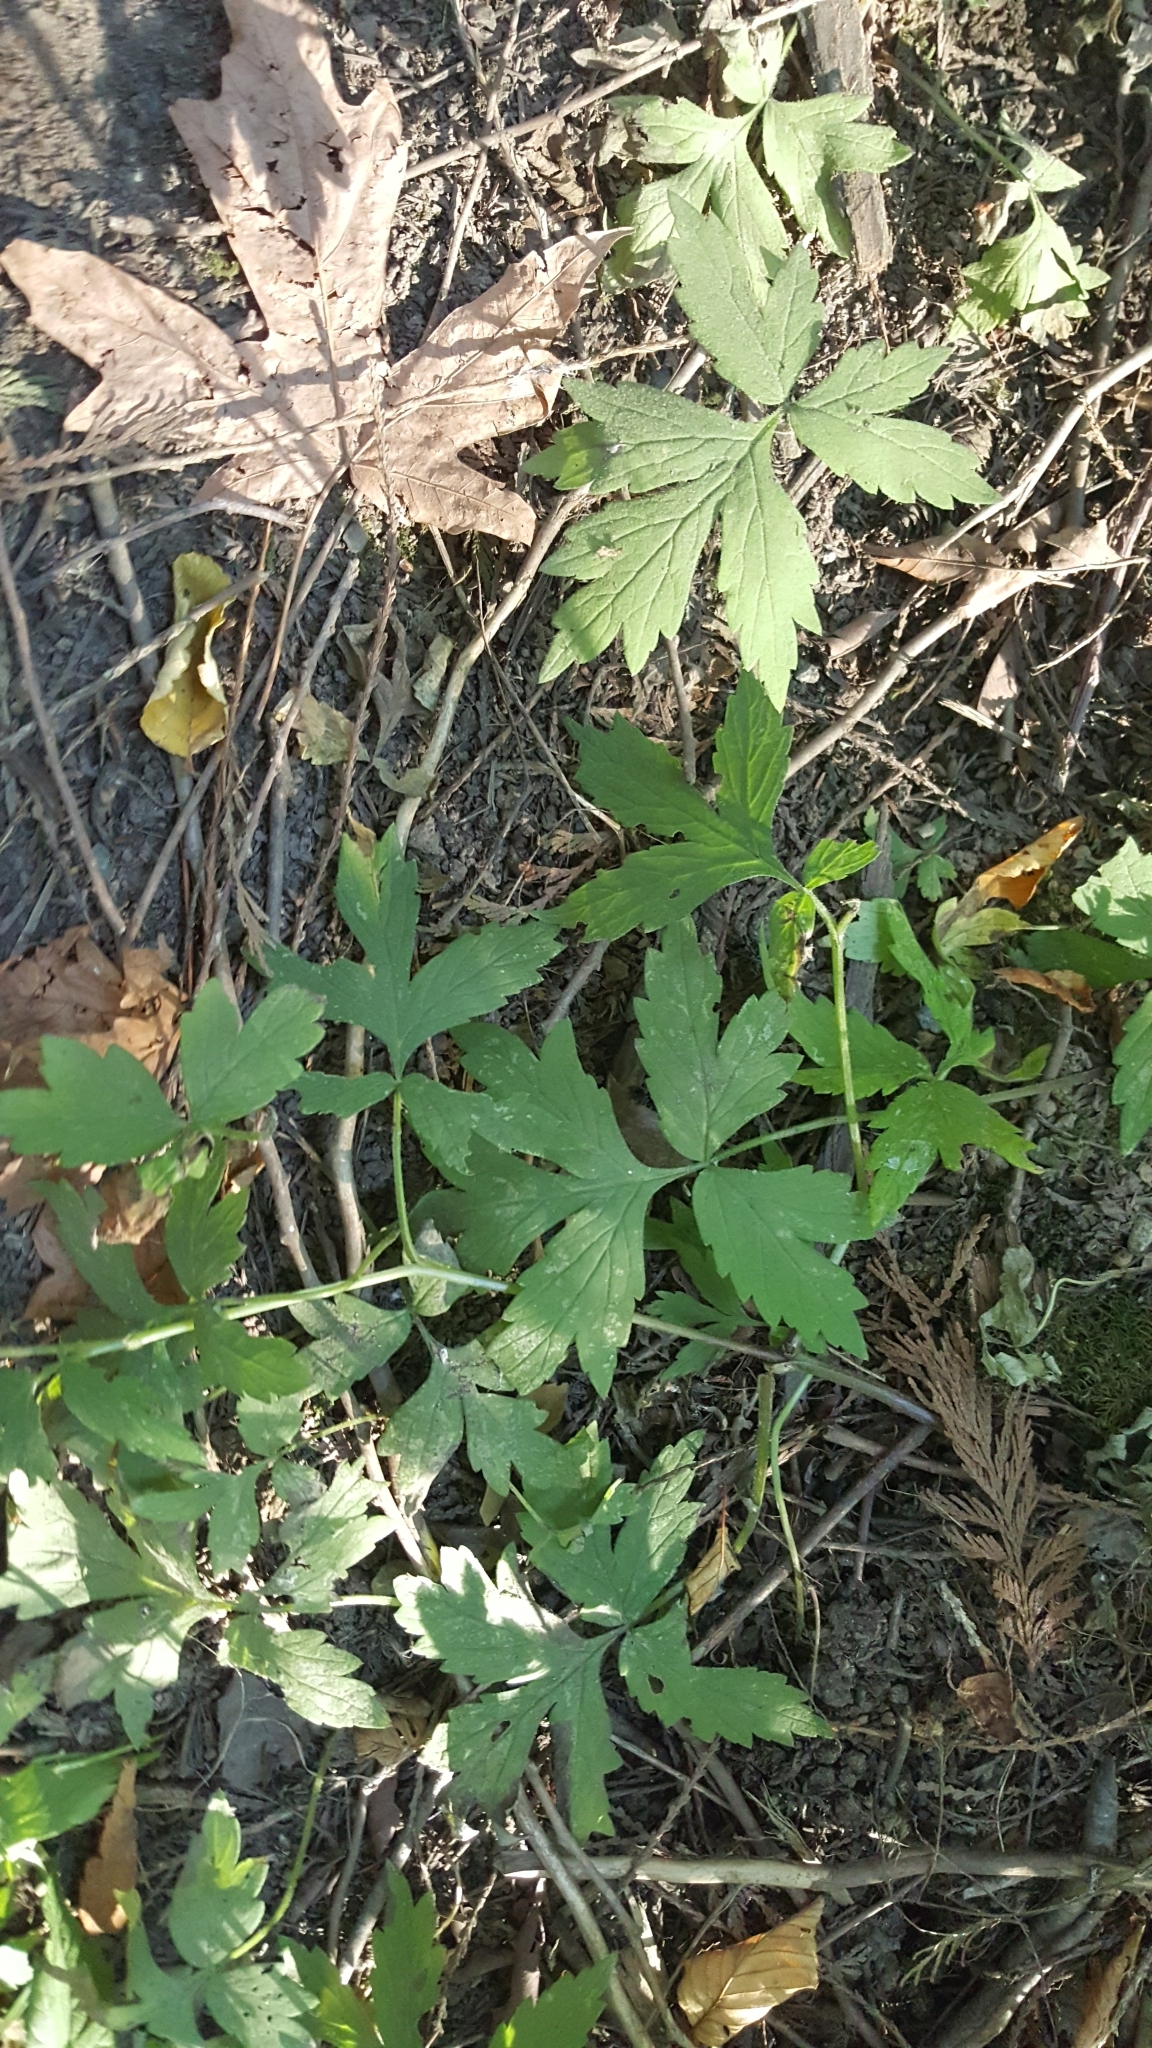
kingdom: Plantae
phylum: Tracheophyta
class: Magnoliopsida
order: Boraginales
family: Hydrophyllaceae
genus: Hydrophyllum
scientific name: Hydrophyllum tenuipes
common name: Pacific waterleaf
